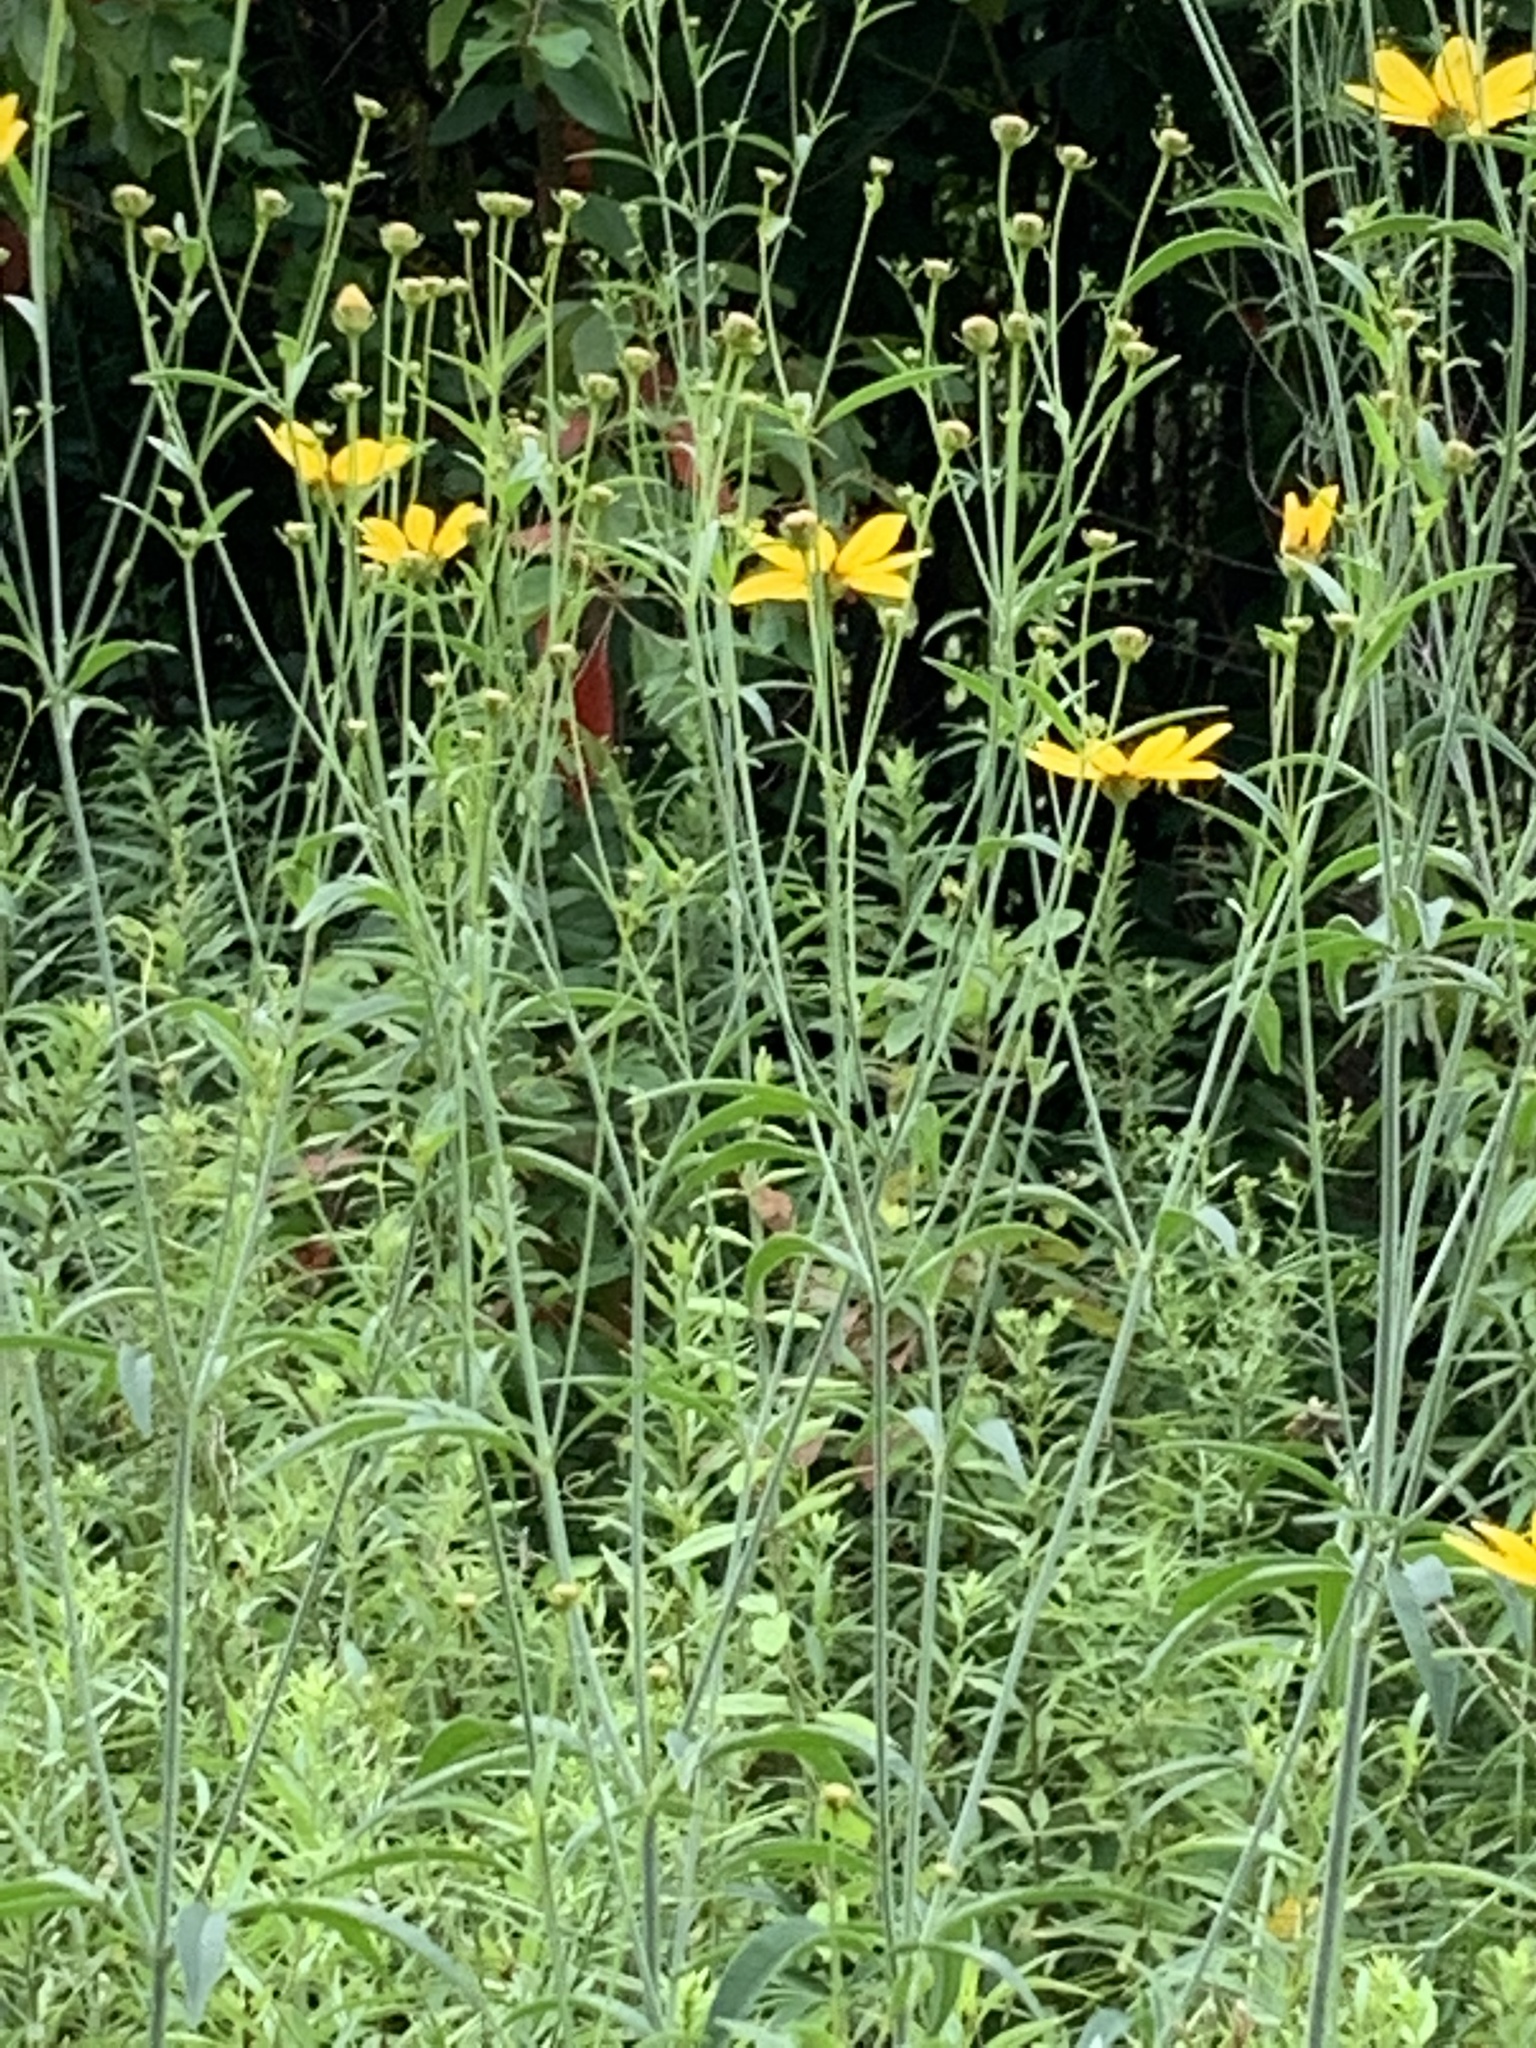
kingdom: Plantae
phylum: Tracheophyta
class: Magnoliopsida
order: Asterales
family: Asteraceae
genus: Coreopsis
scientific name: Coreopsis tripteris
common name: Tall coreopsis
